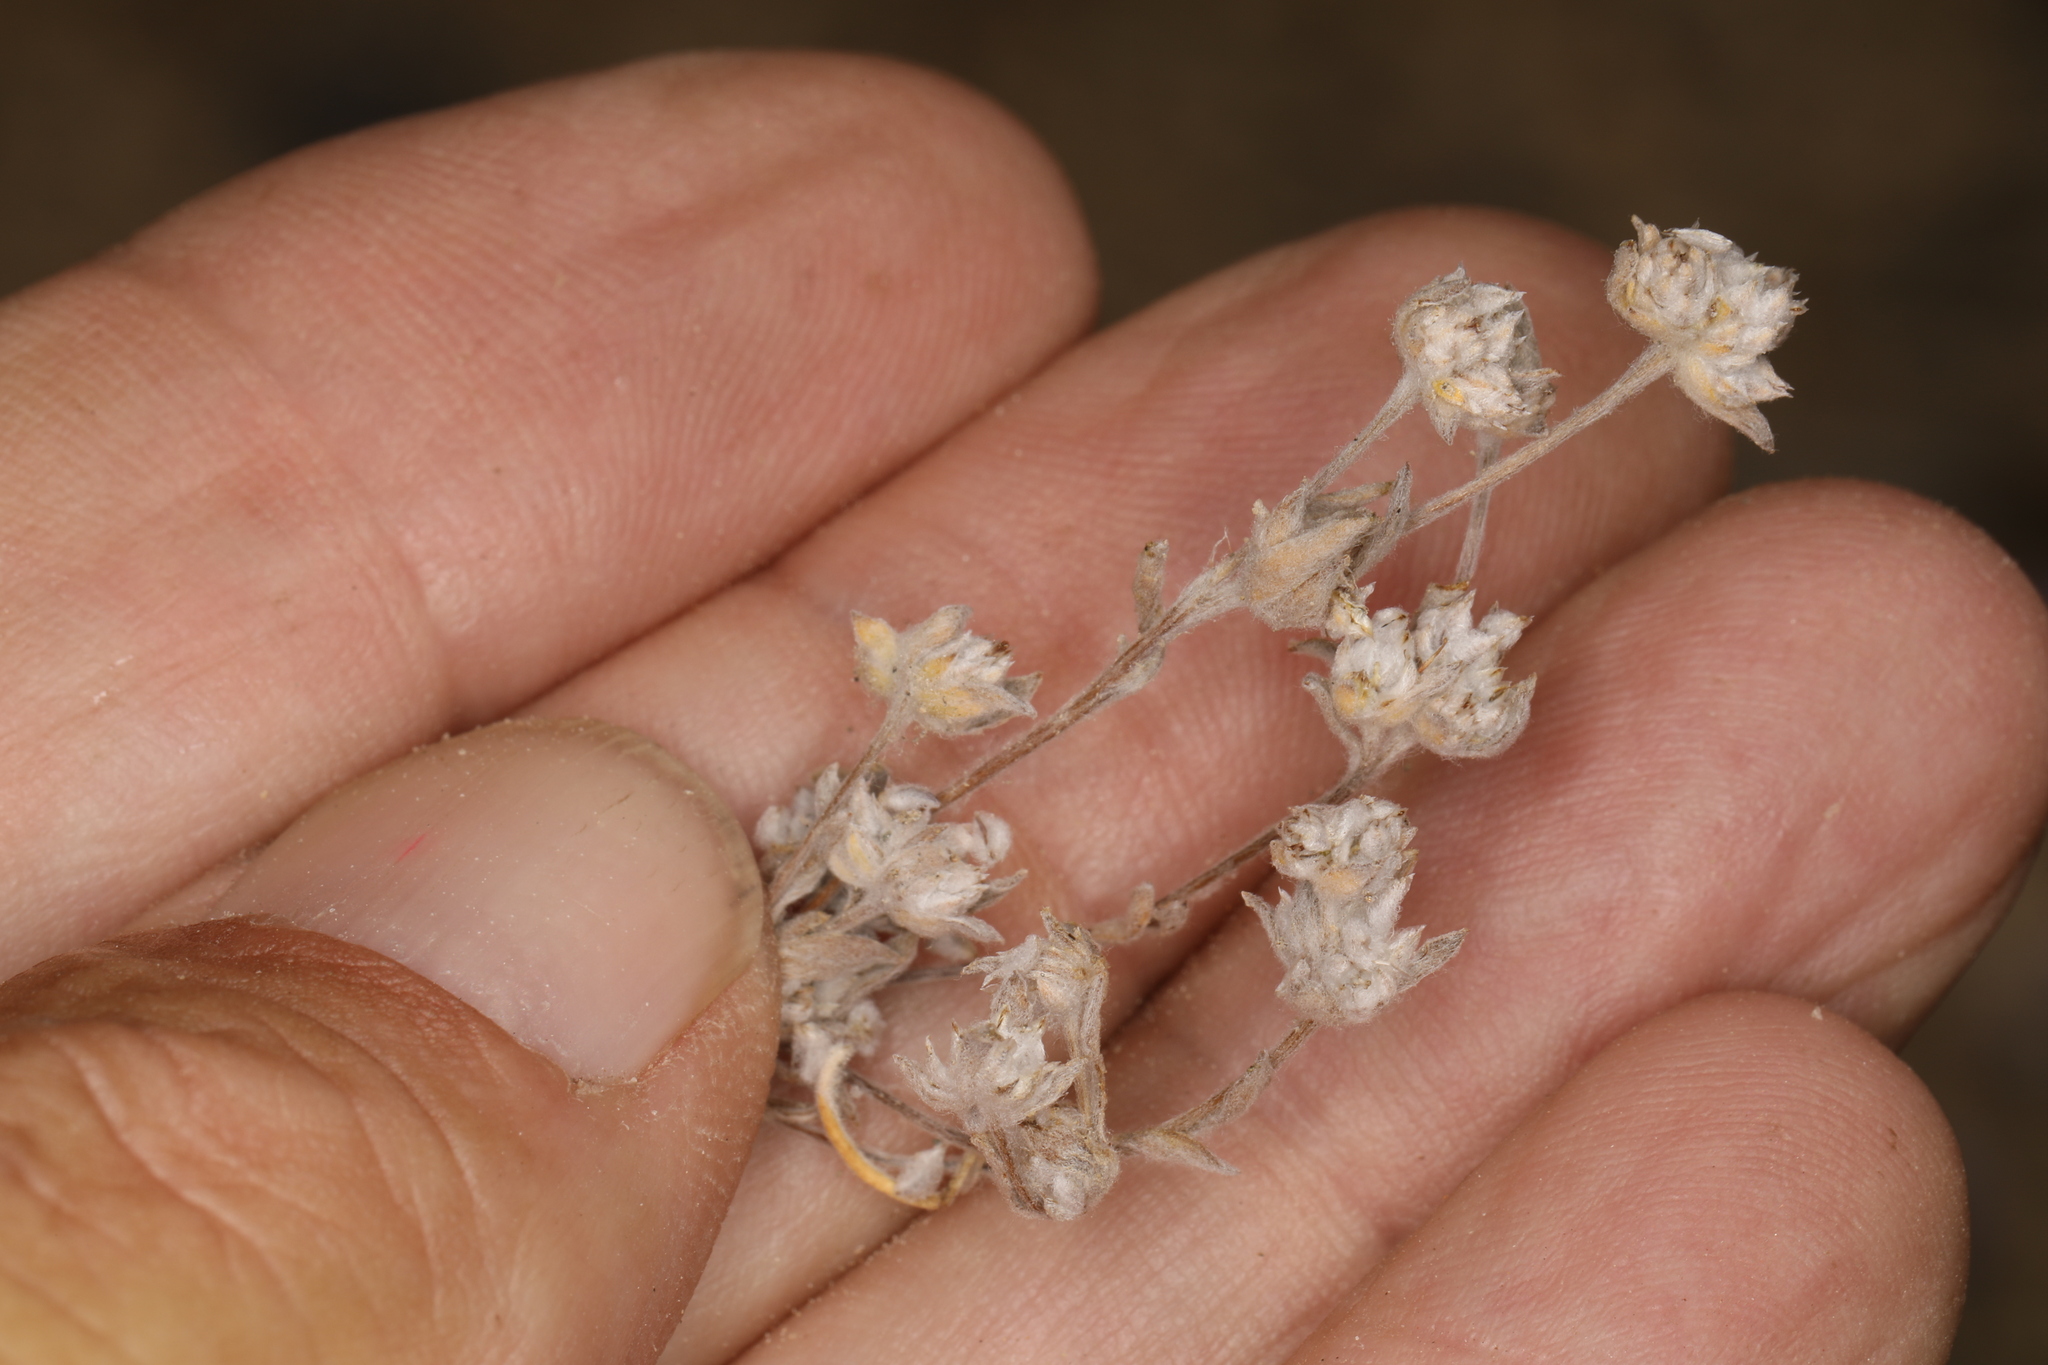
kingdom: Plantae
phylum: Tracheophyta
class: Magnoliopsida
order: Asterales
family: Asteraceae
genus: Stylocline
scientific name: Stylocline psilocarphoides
